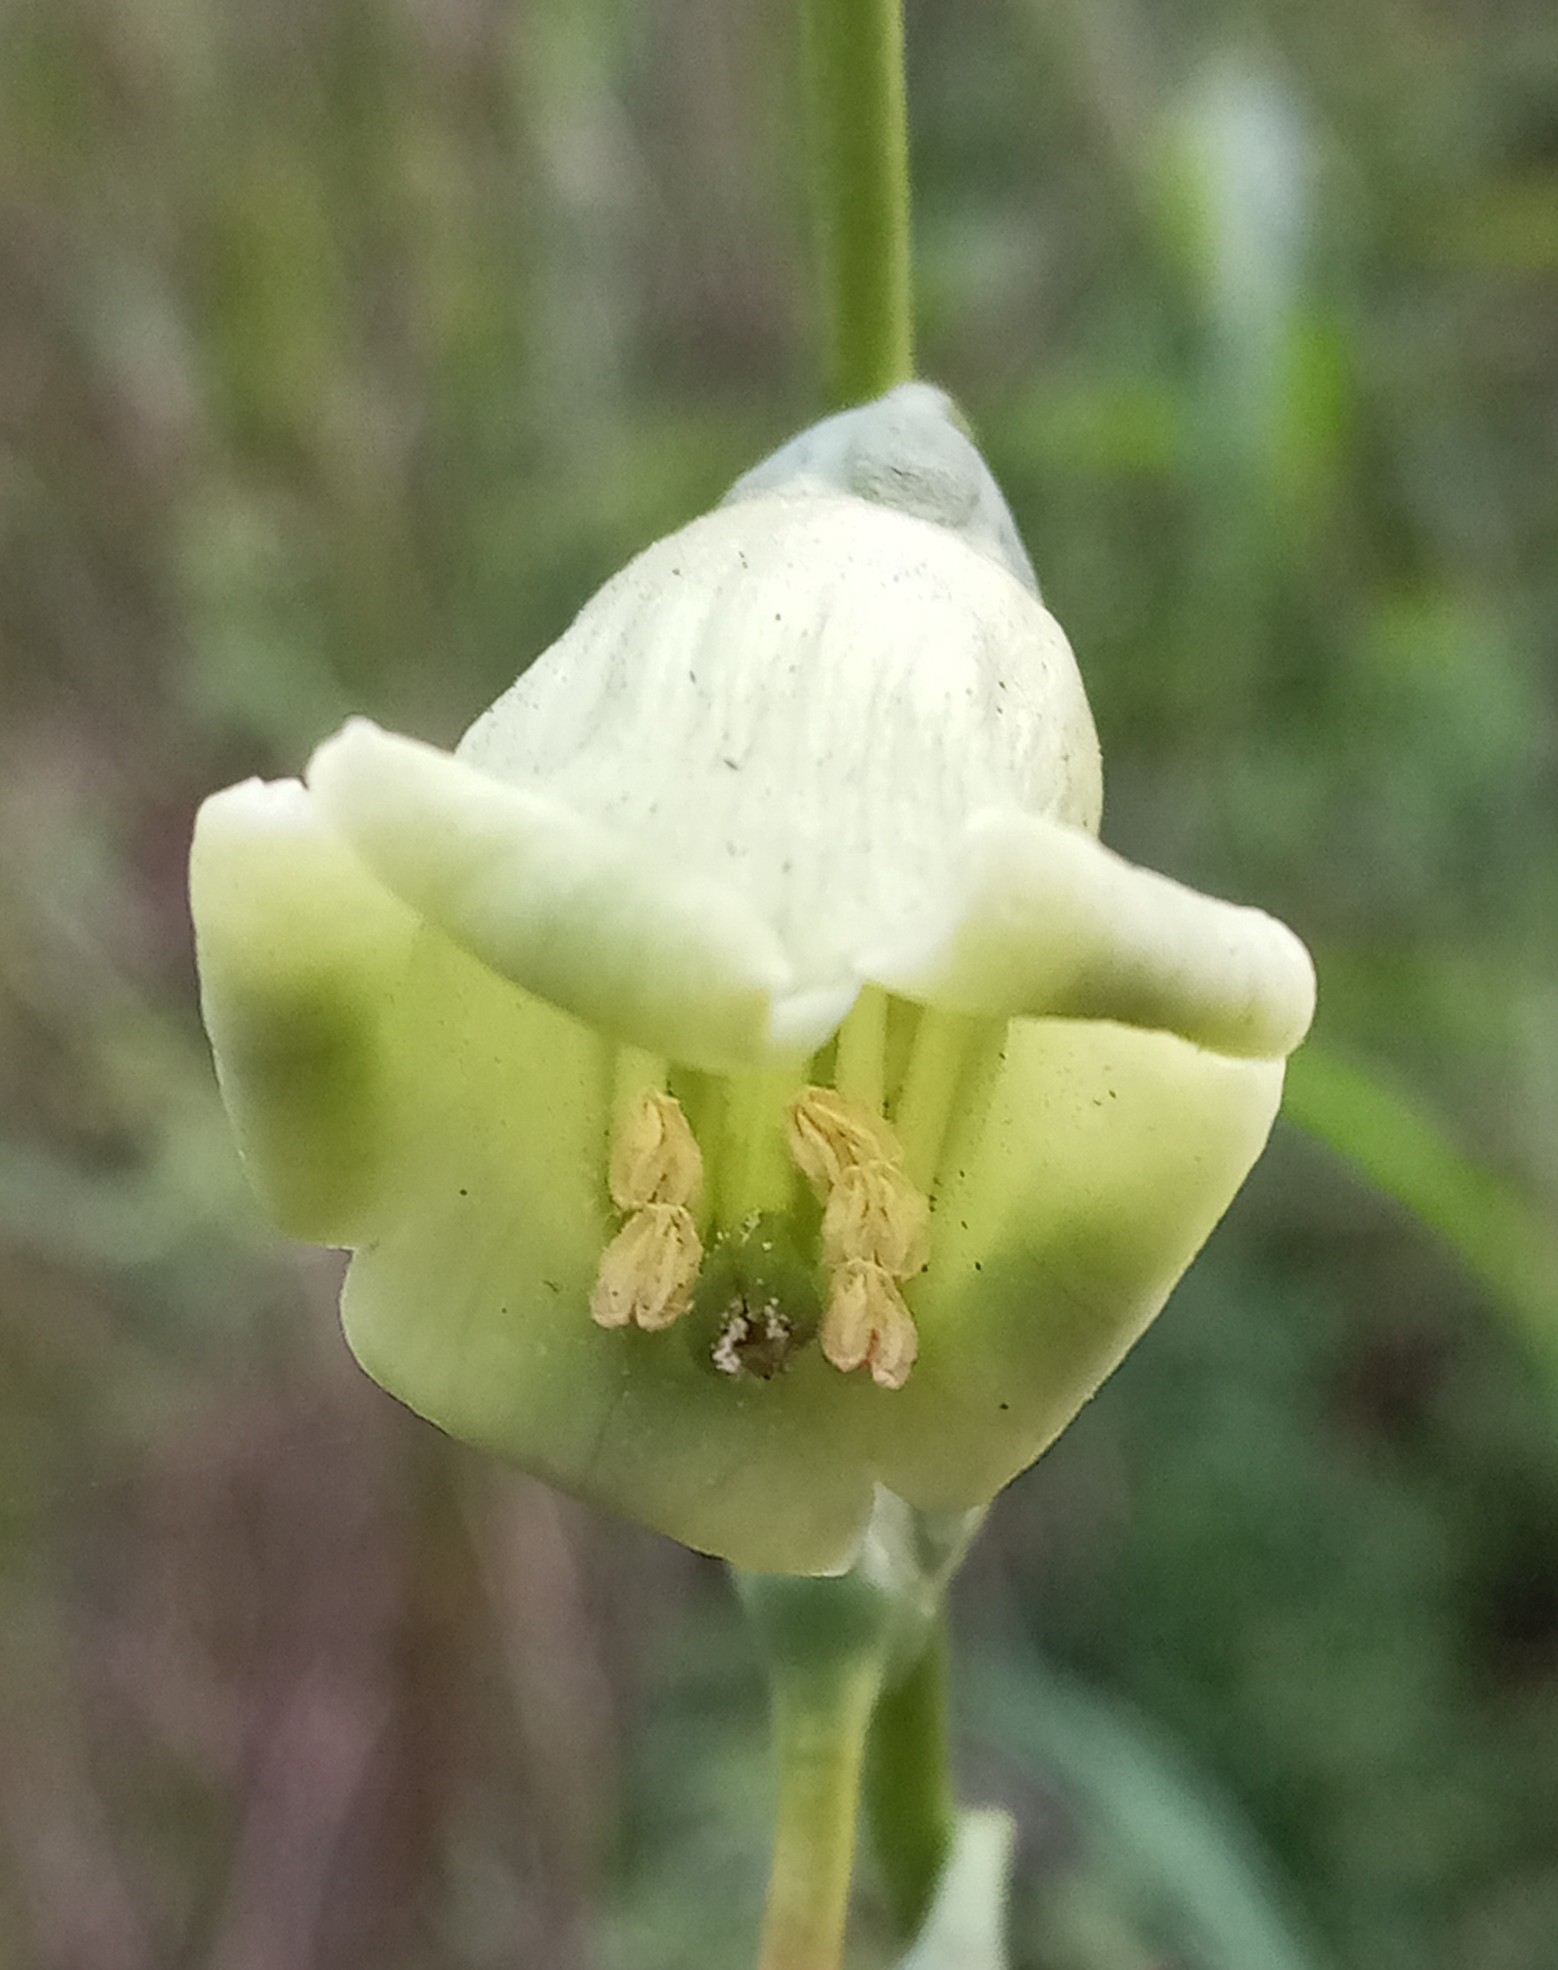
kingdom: Plantae
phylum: Tracheophyta
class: Magnoliopsida
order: Gentianales
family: Gentianaceae
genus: Chelonanthus
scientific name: Chelonanthus alatus
